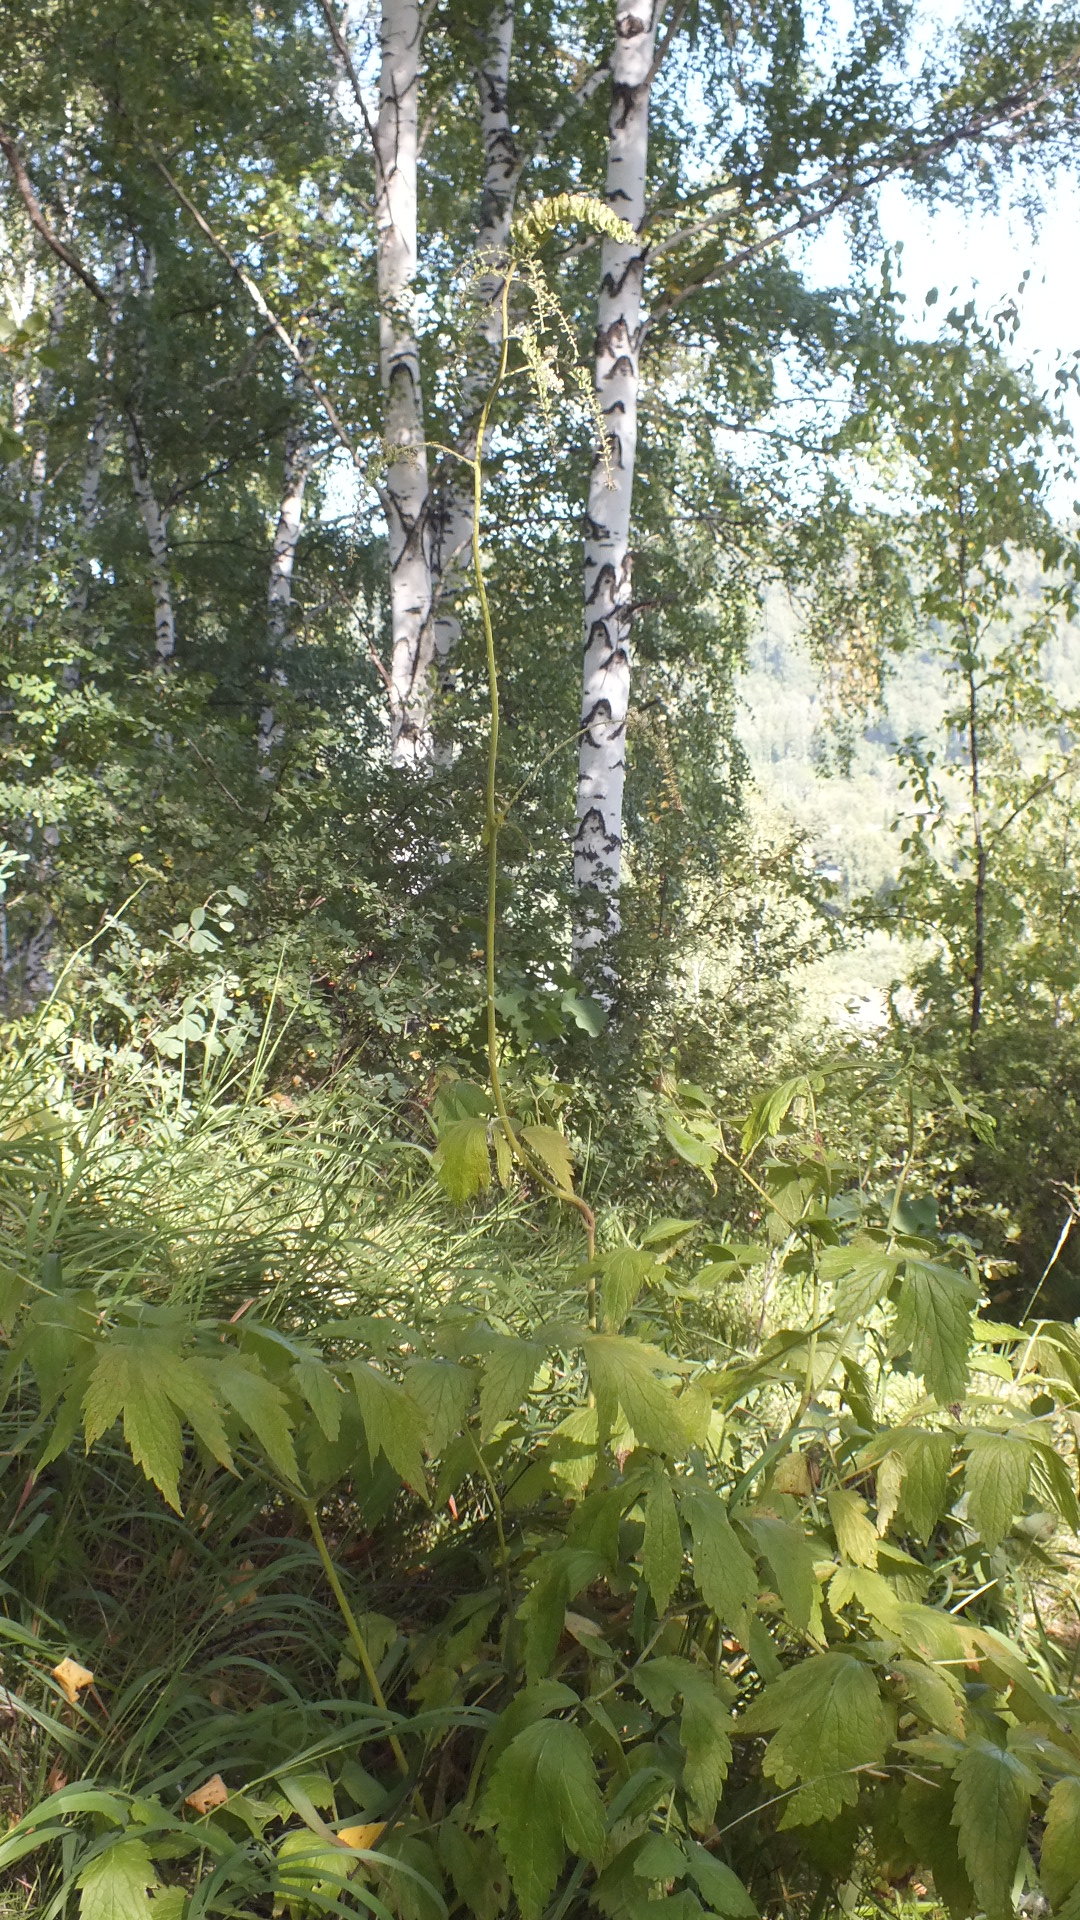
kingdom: Plantae
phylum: Tracheophyta
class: Magnoliopsida
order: Ranunculales
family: Ranunculaceae
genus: Actaea
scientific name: Actaea cimicifuga
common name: Chinese cimicifuga
